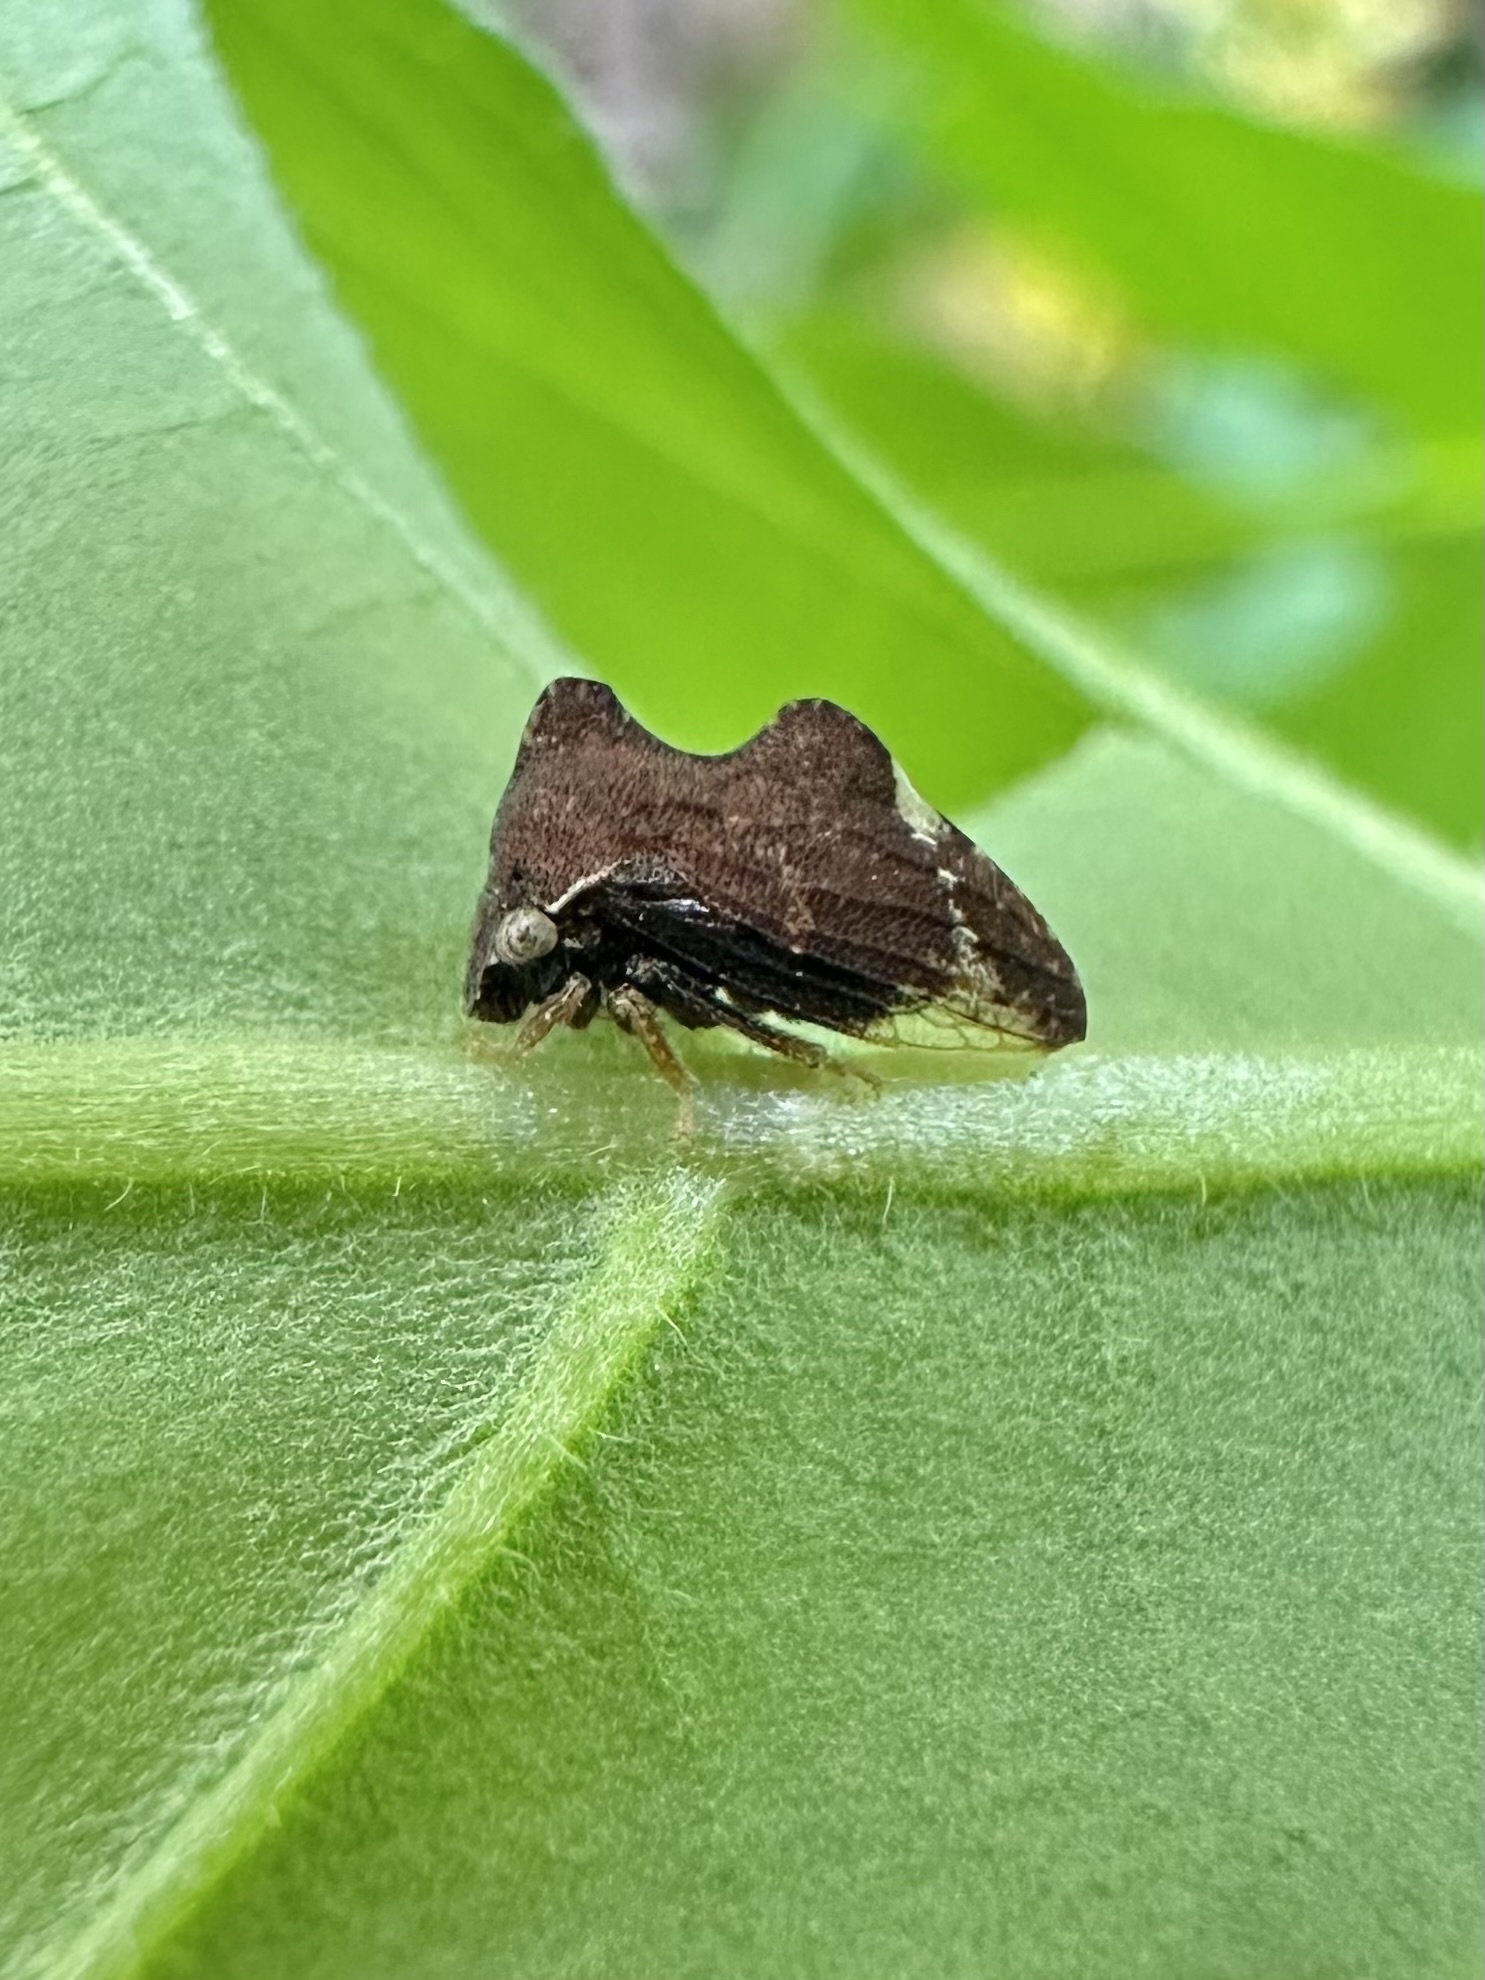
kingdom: Animalia
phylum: Arthropoda
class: Insecta
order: Hemiptera
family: Membracidae
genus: Entylia
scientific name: Entylia carinata
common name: Keeled treehopper
